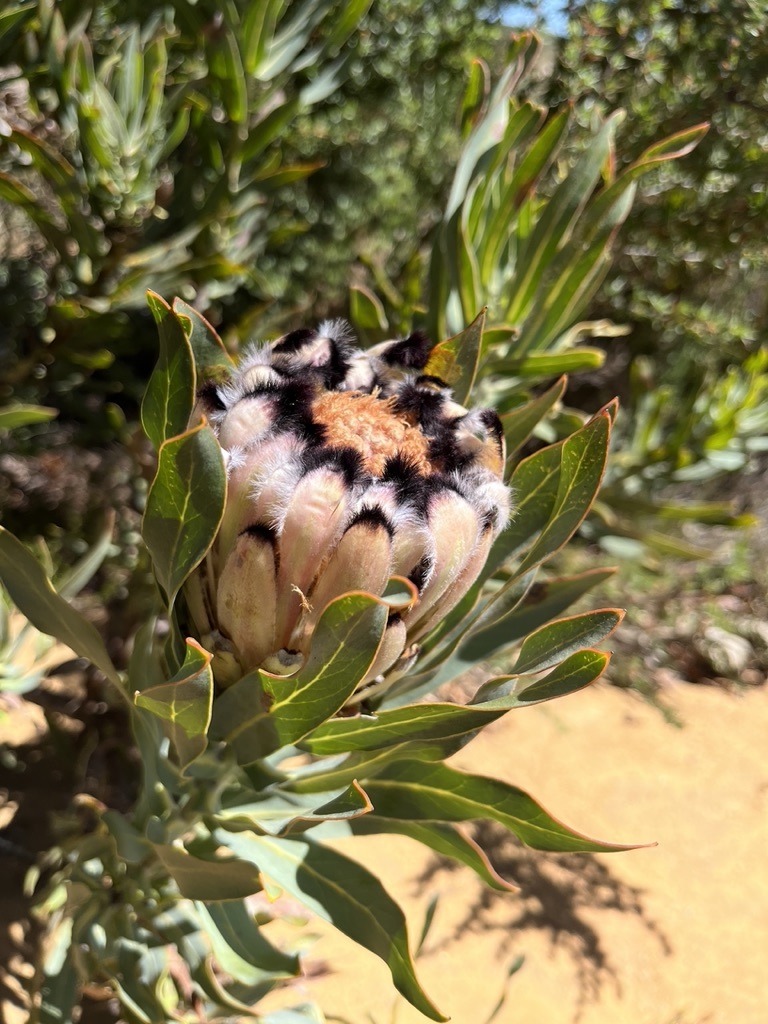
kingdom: Plantae
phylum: Tracheophyta
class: Magnoliopsida
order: Proteales
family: Proteaceae
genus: Protea
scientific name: Protea neriifolia
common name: Blue sugarbush
